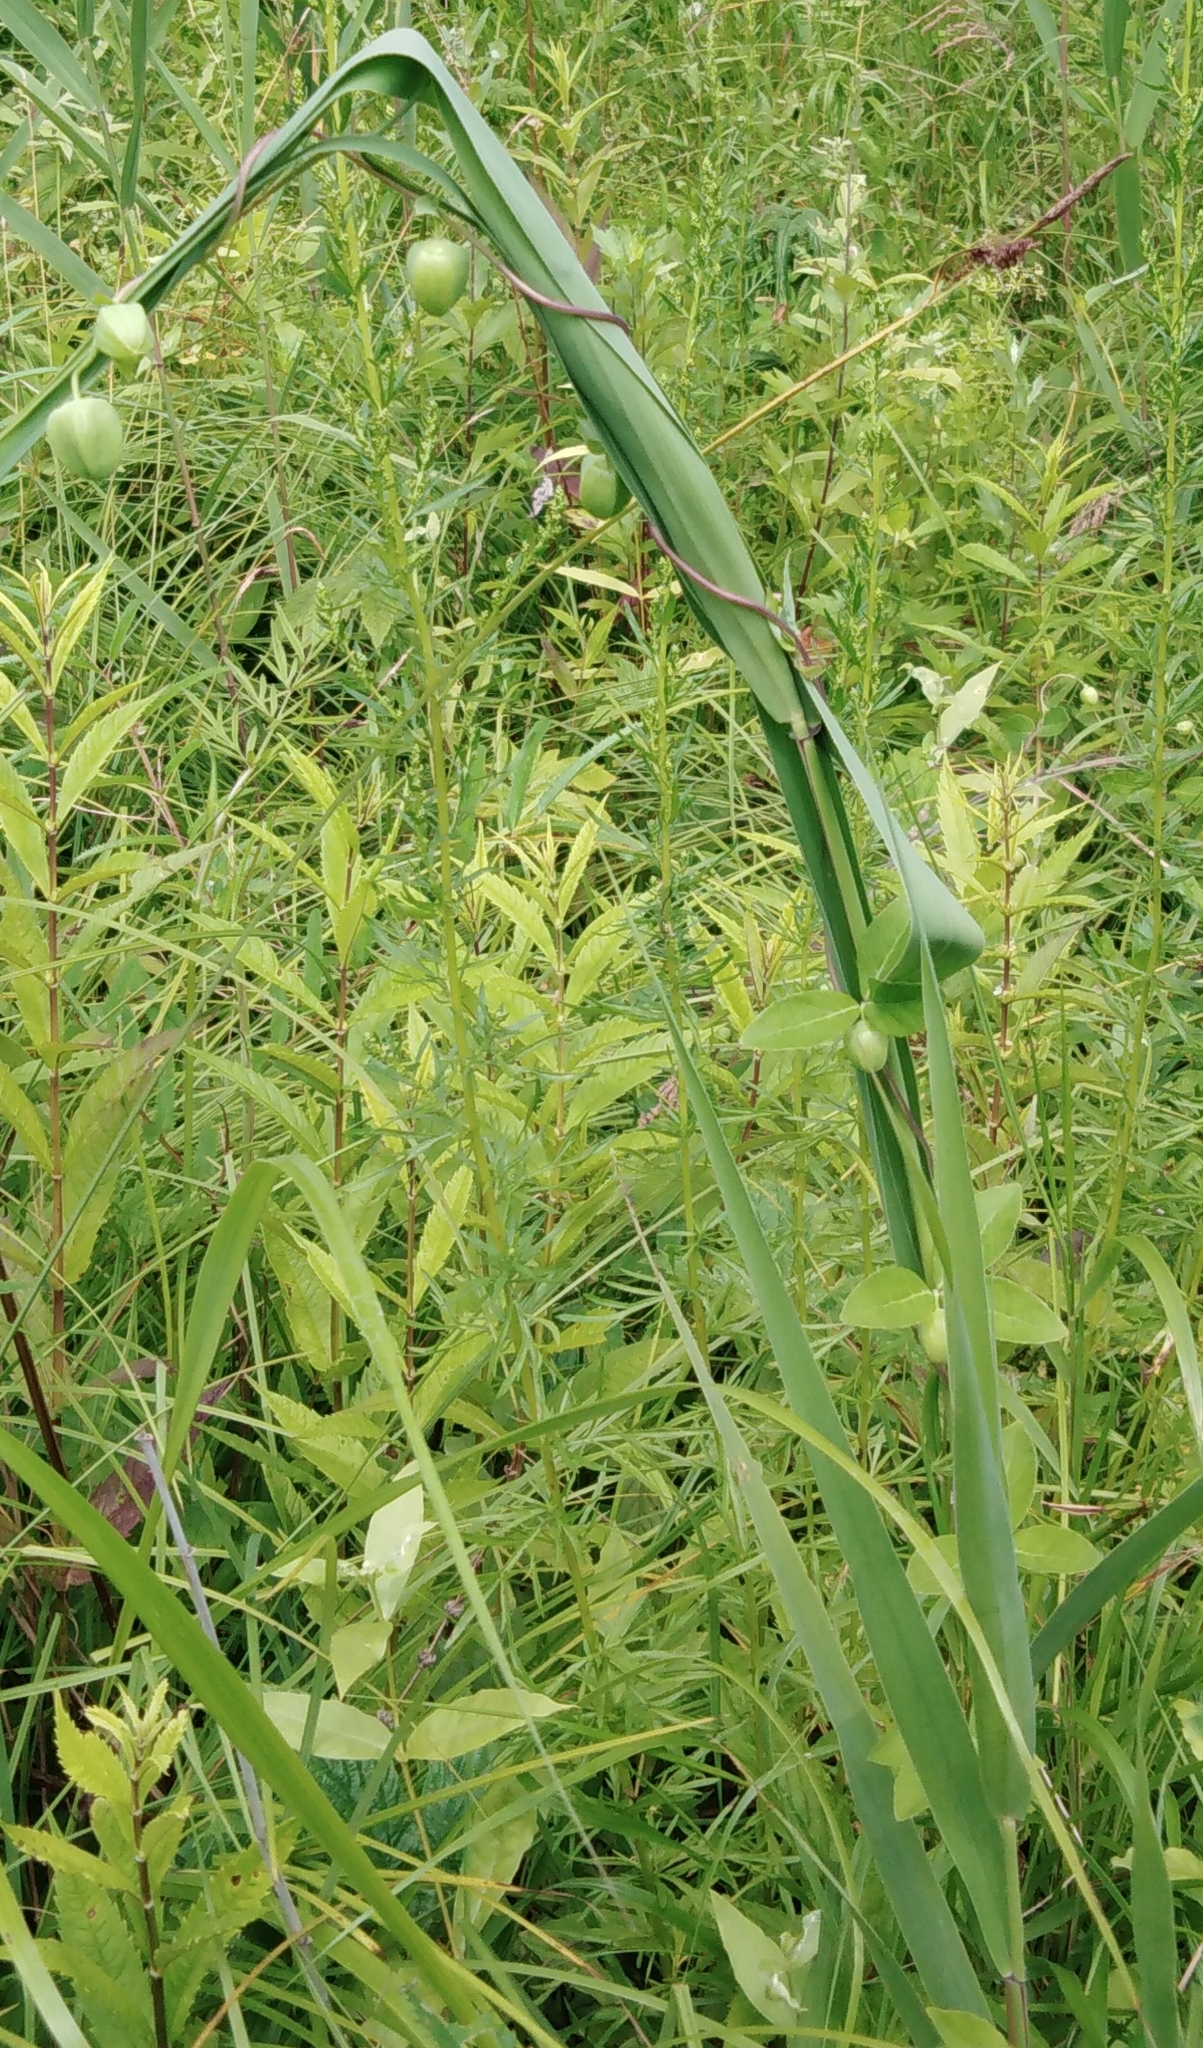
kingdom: Plantae
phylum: Tracheophyta
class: Magnoliopsida
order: Asterales
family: Campanulaceae
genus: Codonopsis
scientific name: Codonopsis ussuriensis
